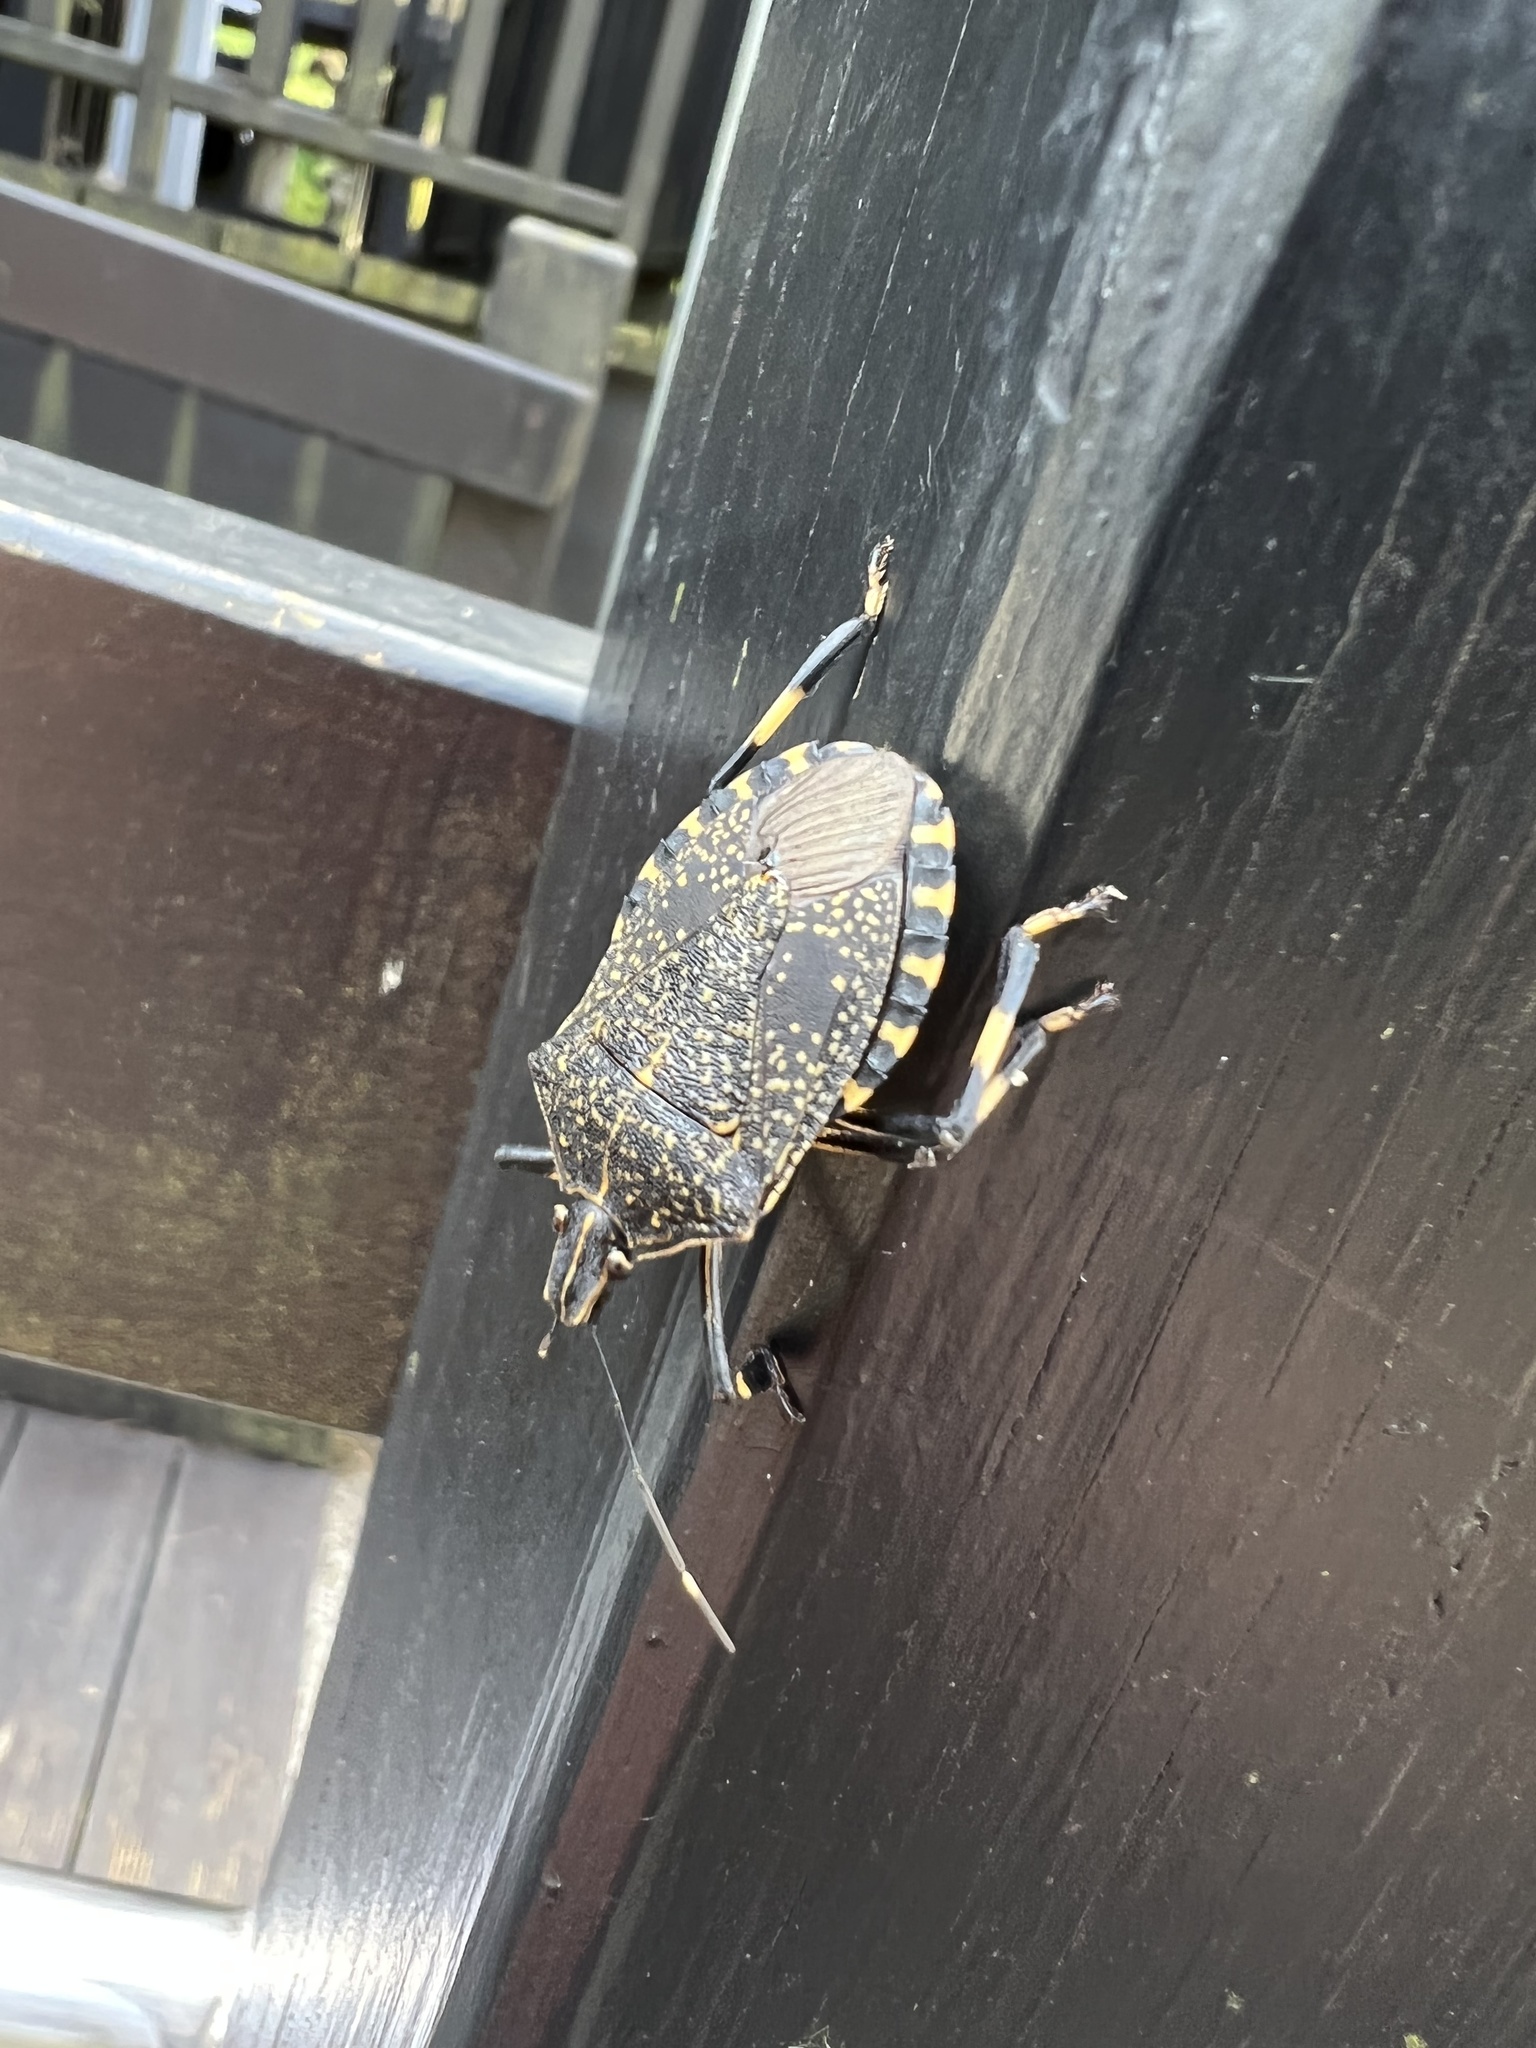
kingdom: Animalia
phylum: Arthropoda
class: Insecta
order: Hemiptera
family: Pentatomidae
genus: Erthesina
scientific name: Erthesina fullo
